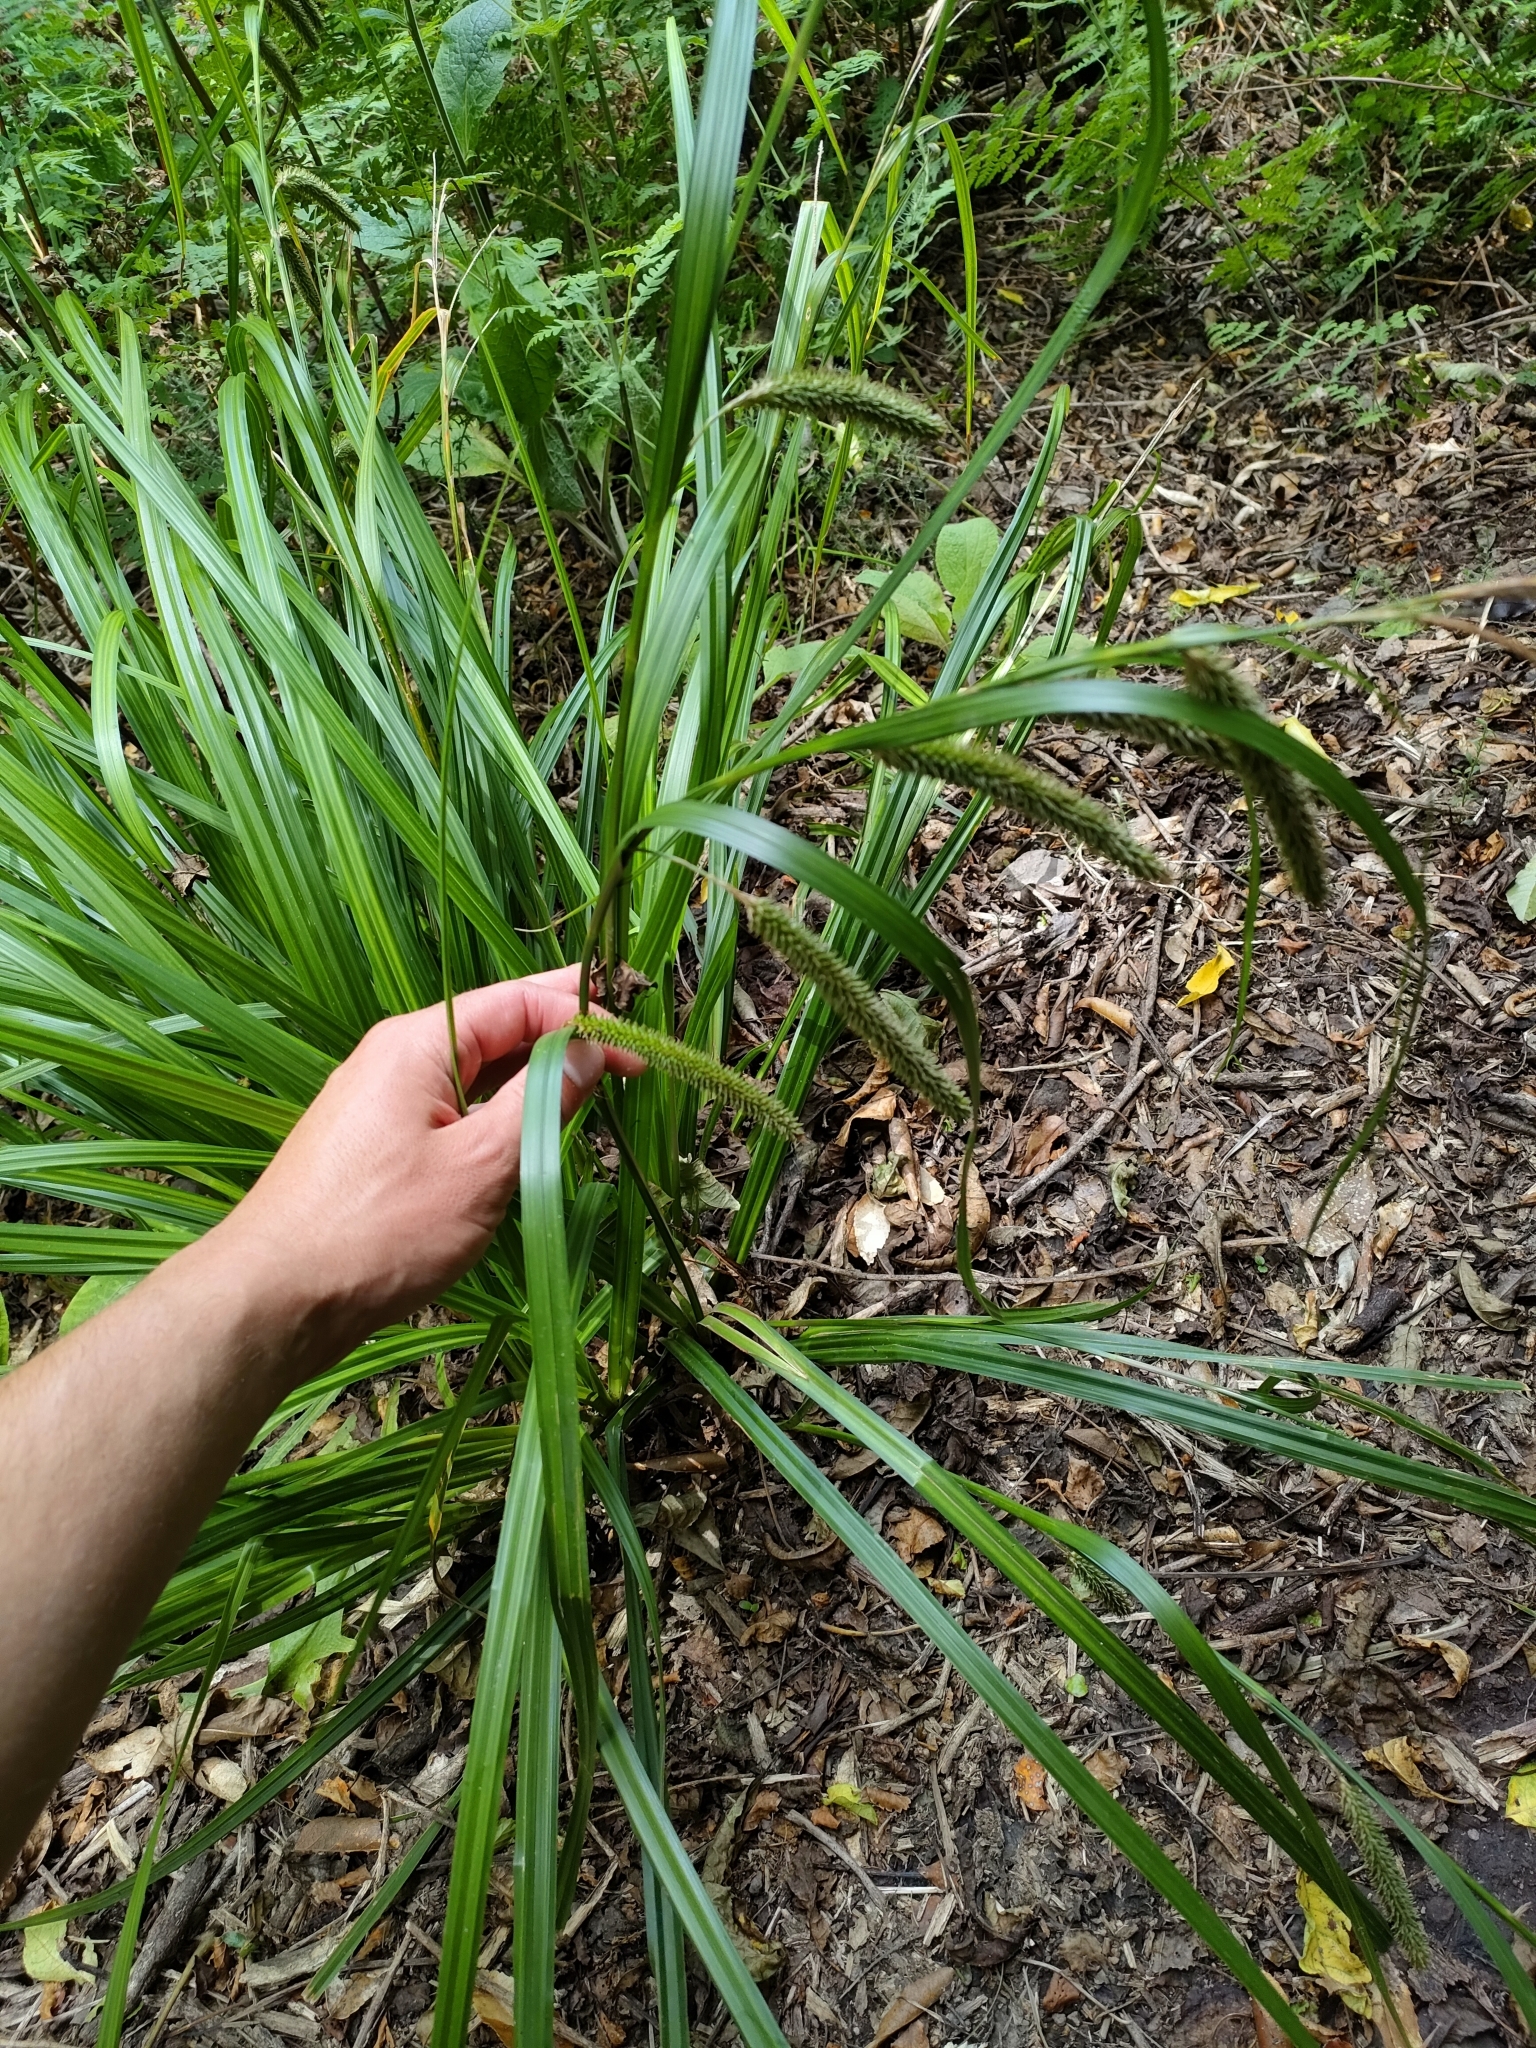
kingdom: Plantae
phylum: Tracheophyta
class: Liliopsida
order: Poales
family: Cyperaceae
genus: Carex
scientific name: Carex forsteri
